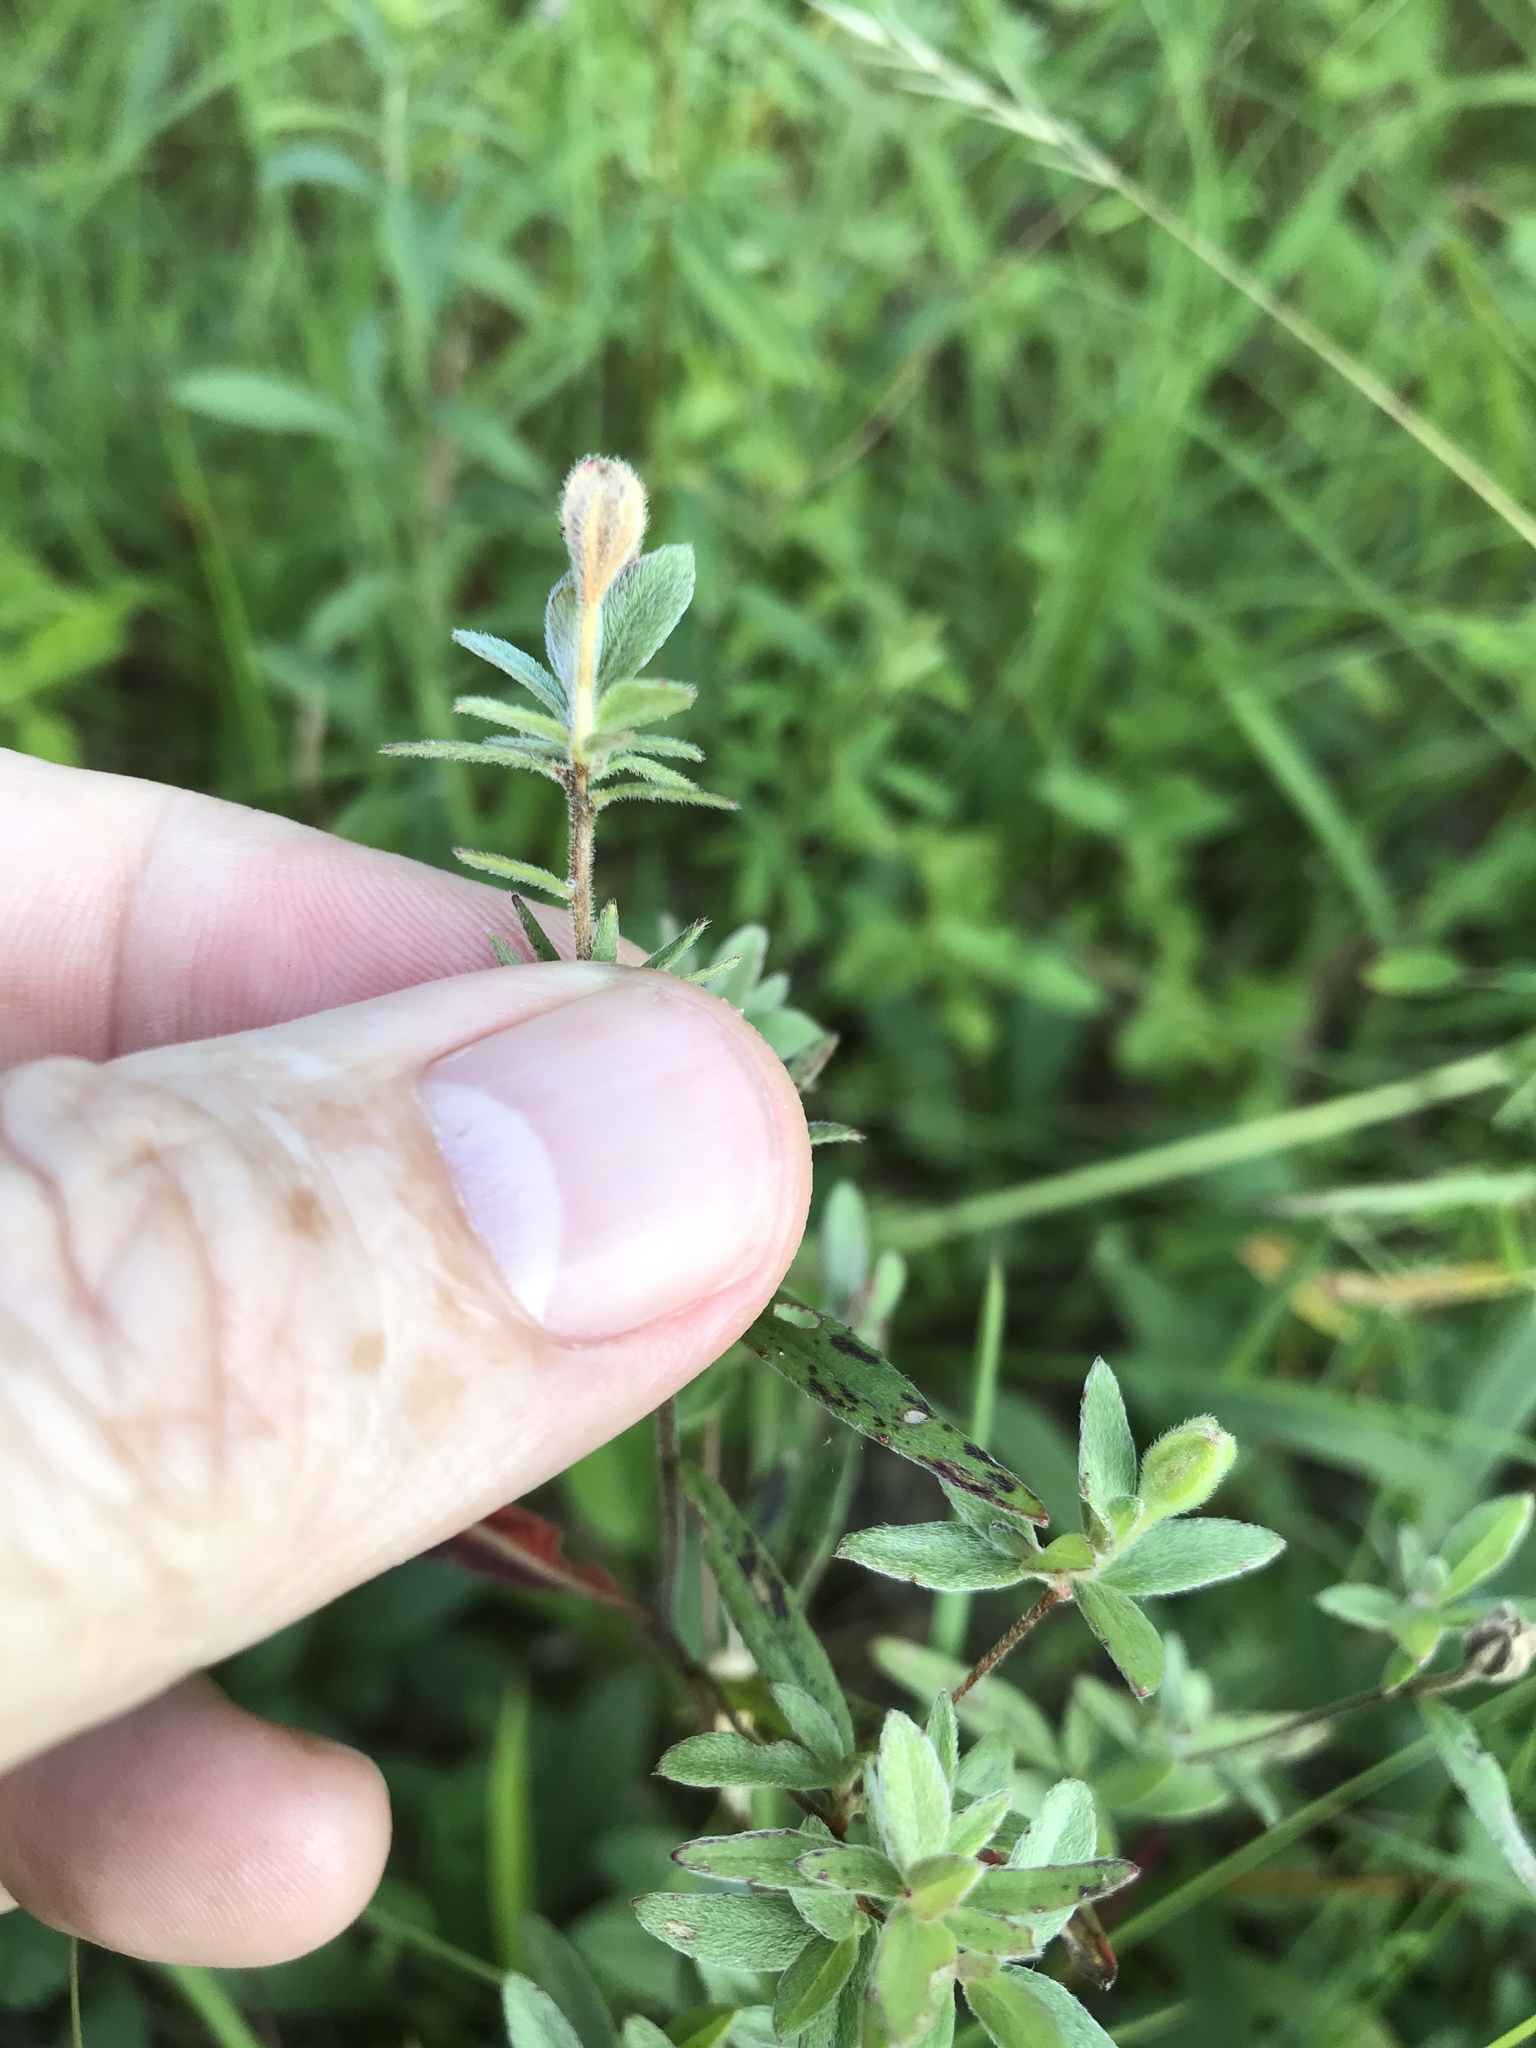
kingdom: Plantae
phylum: Tracheophyta
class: Magnoliopsida
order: Myrtales
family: Onagraceae
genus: Oenothera
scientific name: Oenothera fruticosa
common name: Southern sundrops
